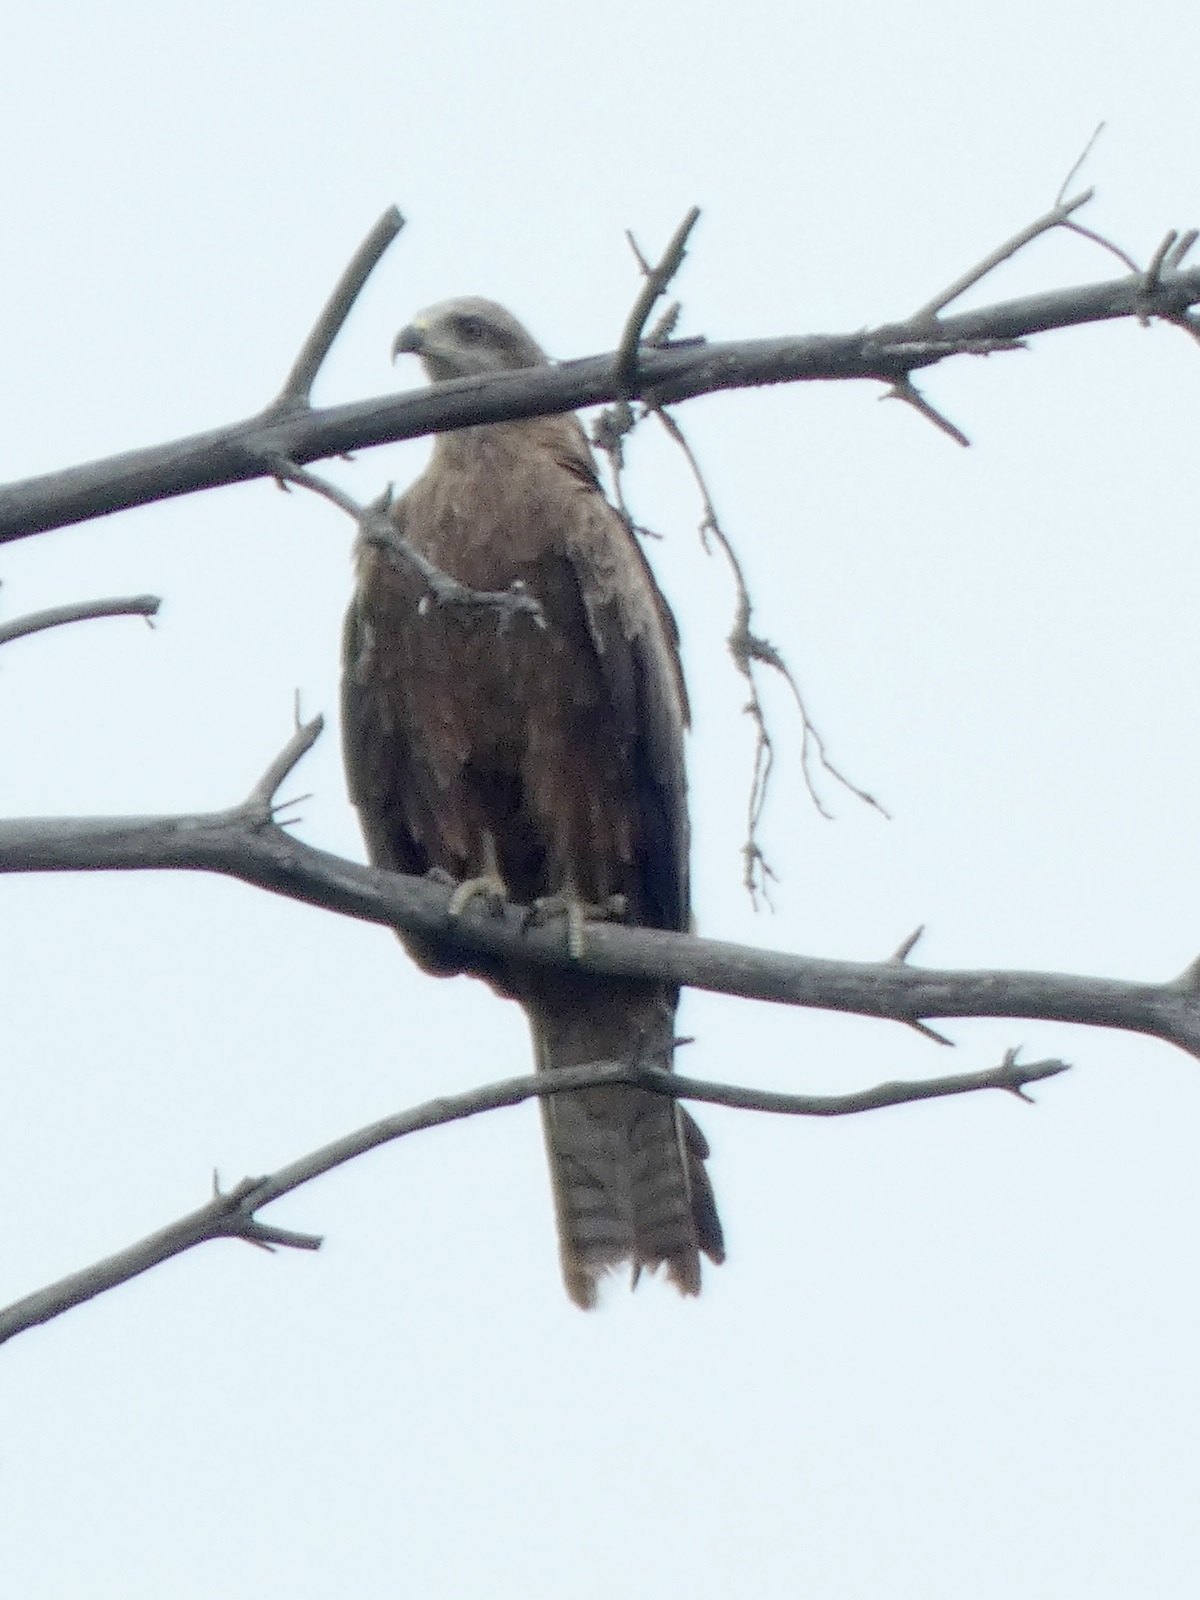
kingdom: Animalia
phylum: Chordata
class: Aves
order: Accipitriformes
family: Accipitridae
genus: Milvus
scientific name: Milvus migrans
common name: Black kite
